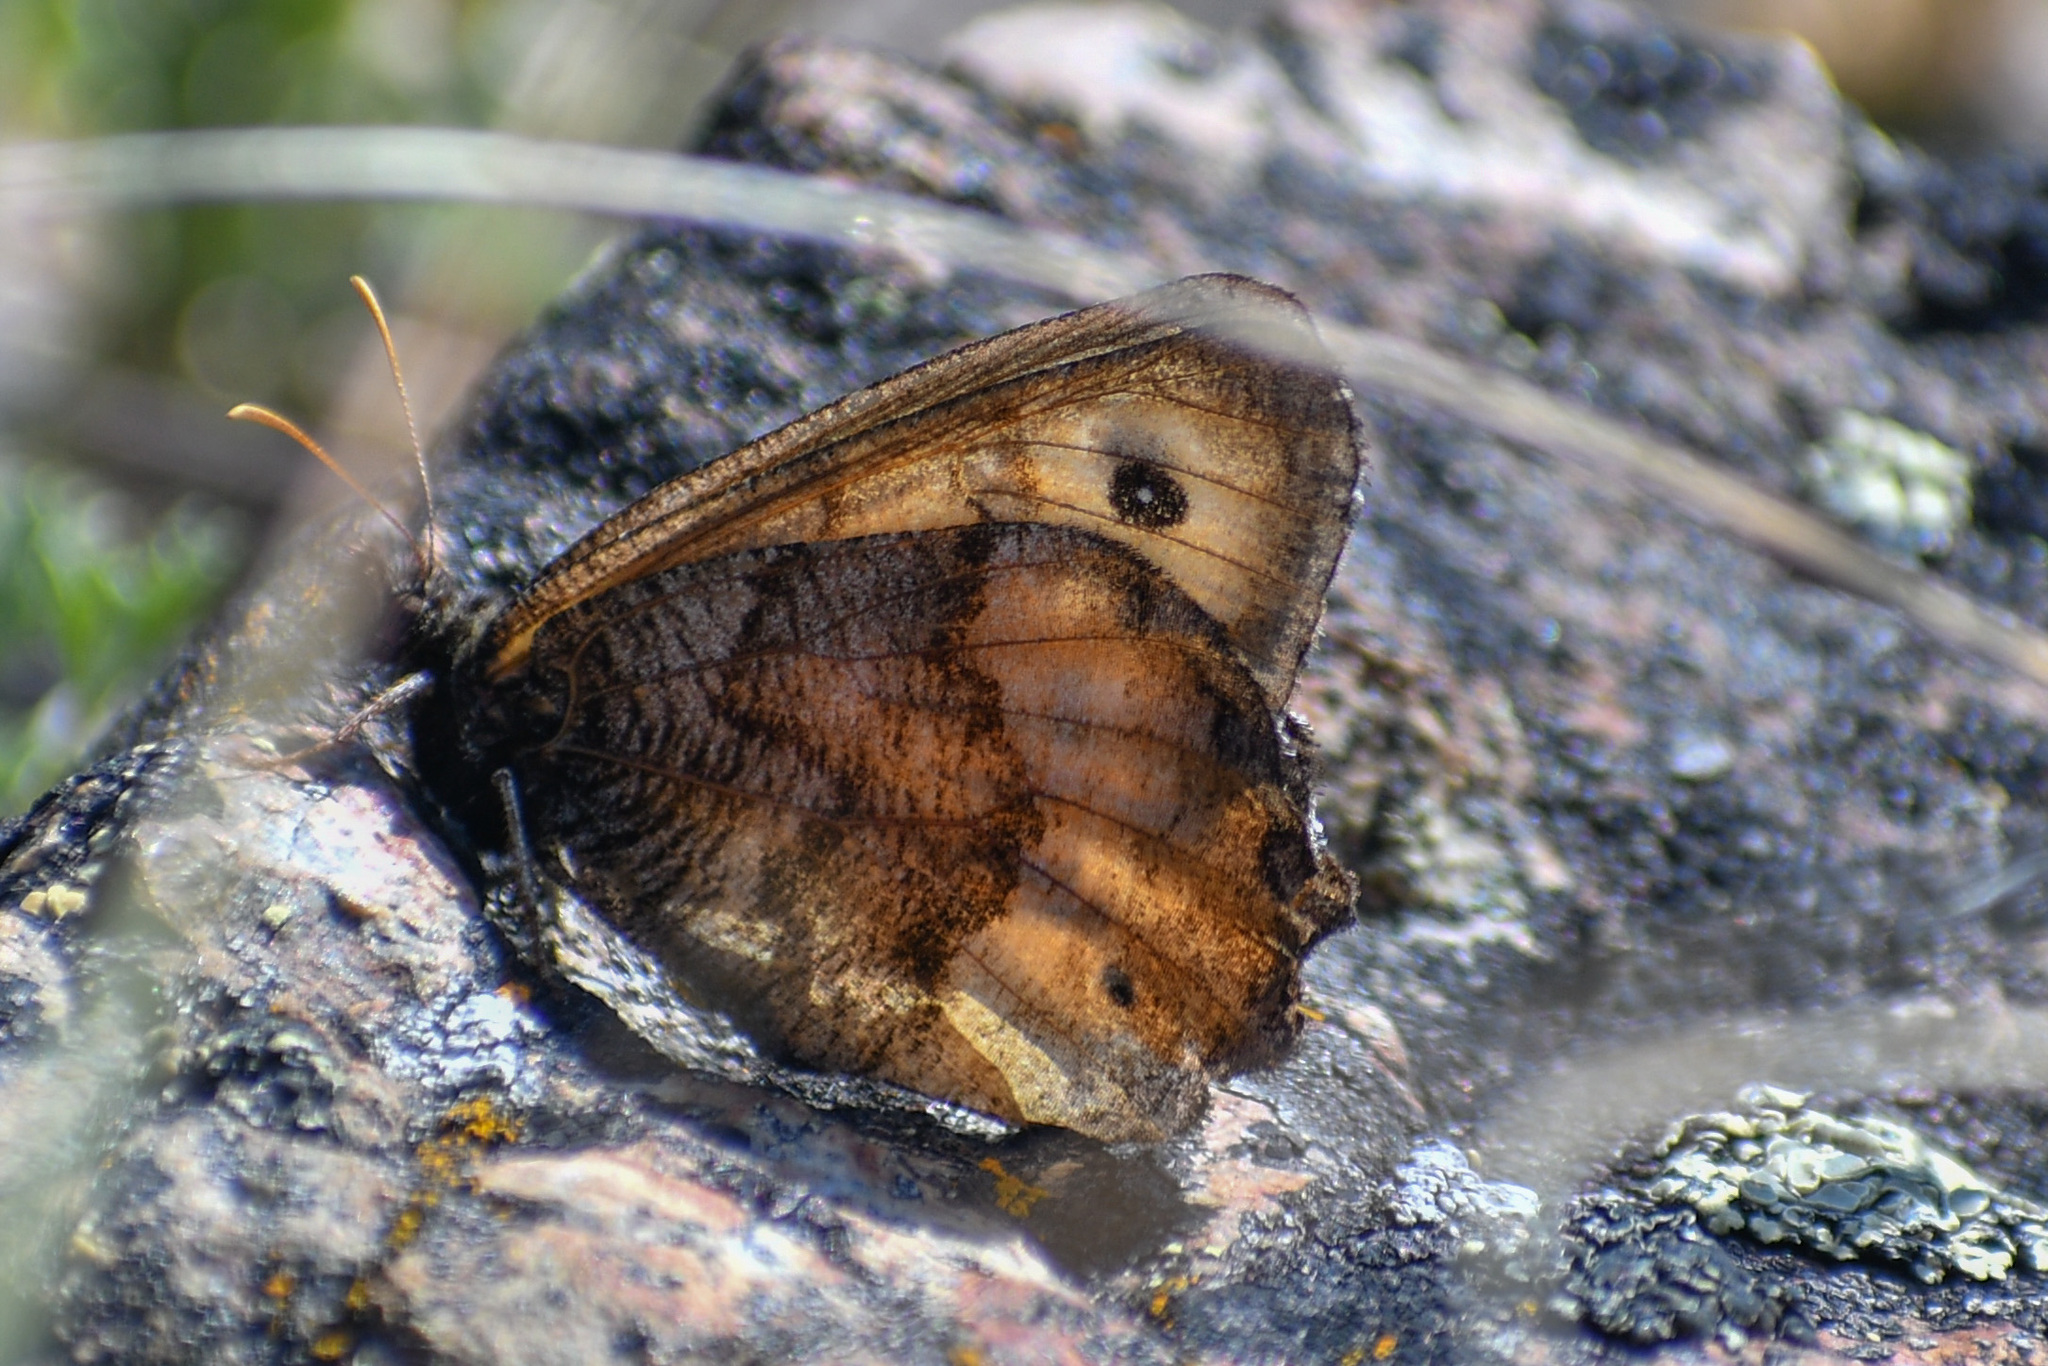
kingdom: Animalia
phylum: Arthropoda
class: Insecta
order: Lepidoptera
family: Nymphalidae
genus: Oeneis
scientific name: Oeneis macounii
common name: Macoun's arctic
